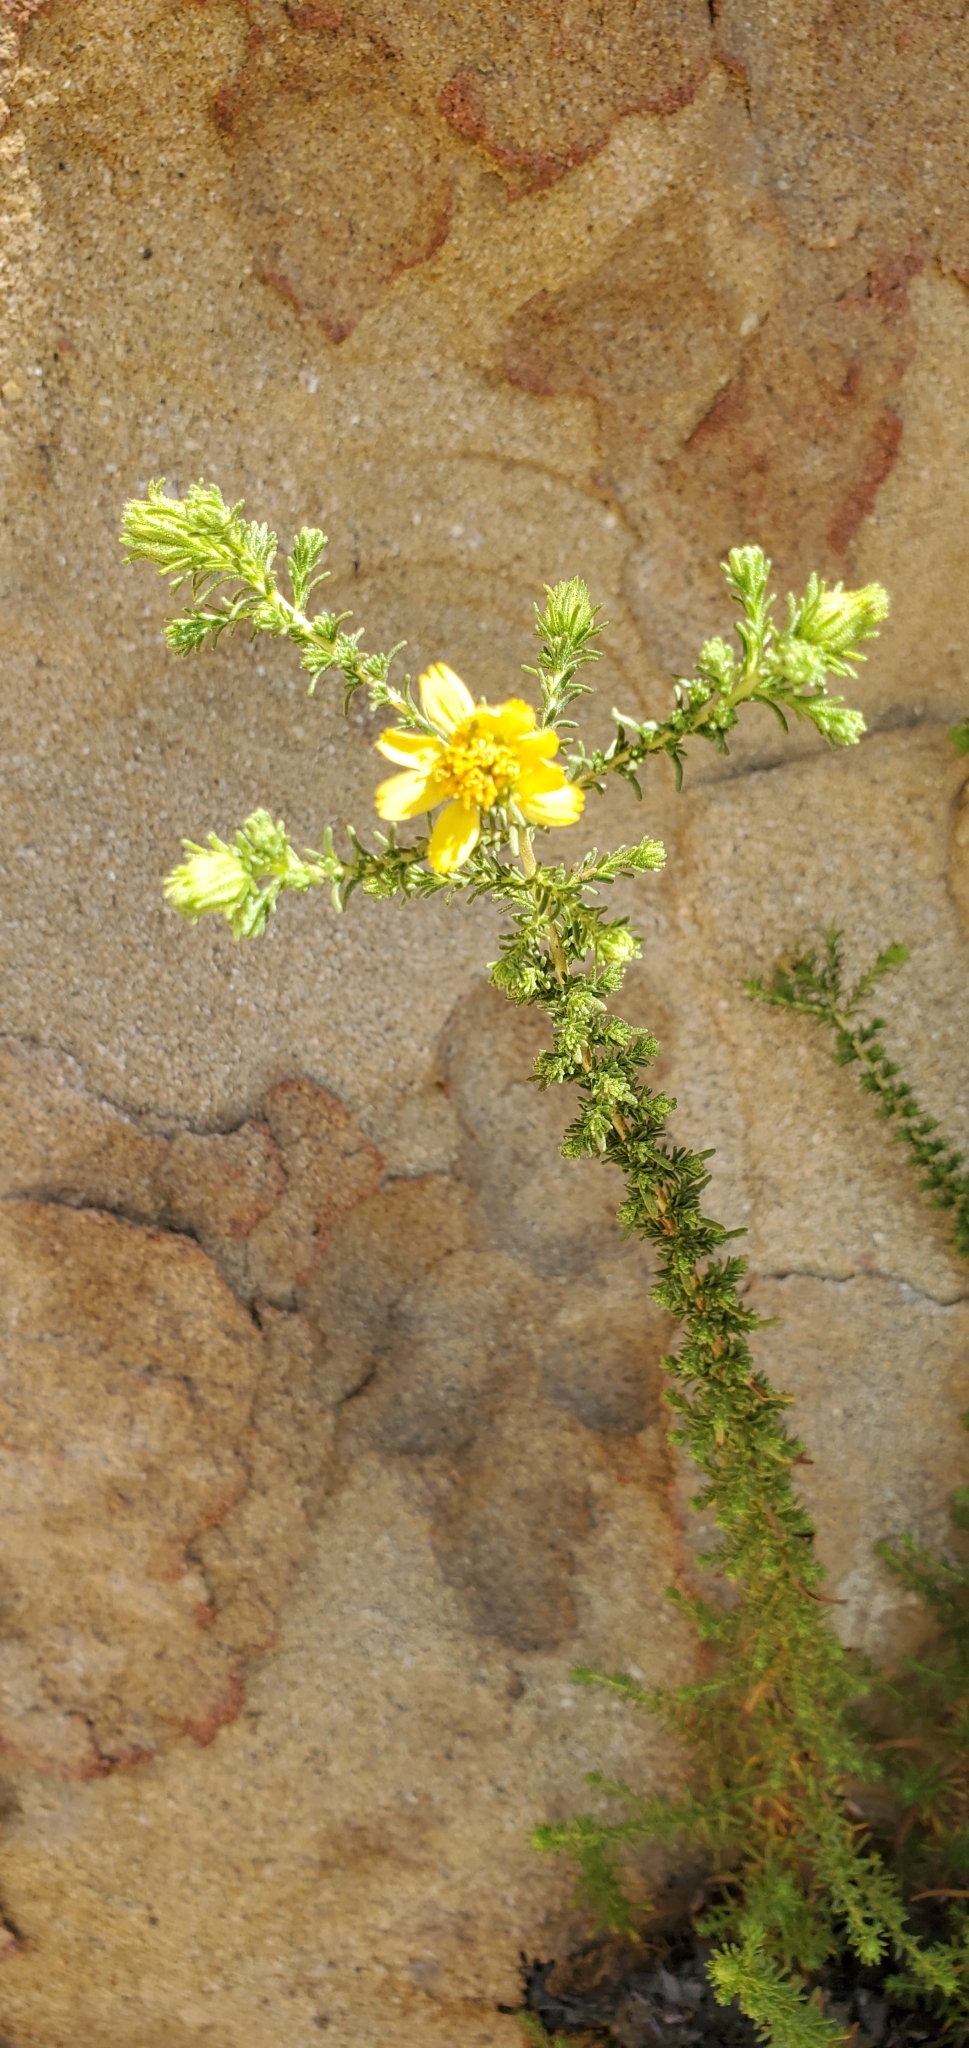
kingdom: Plantae
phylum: Tracheophyta
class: Magnoliopsida
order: Asterales
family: Asteraceae
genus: Deinandra
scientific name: Deinandra minthornii
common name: Santa susana tarplant
